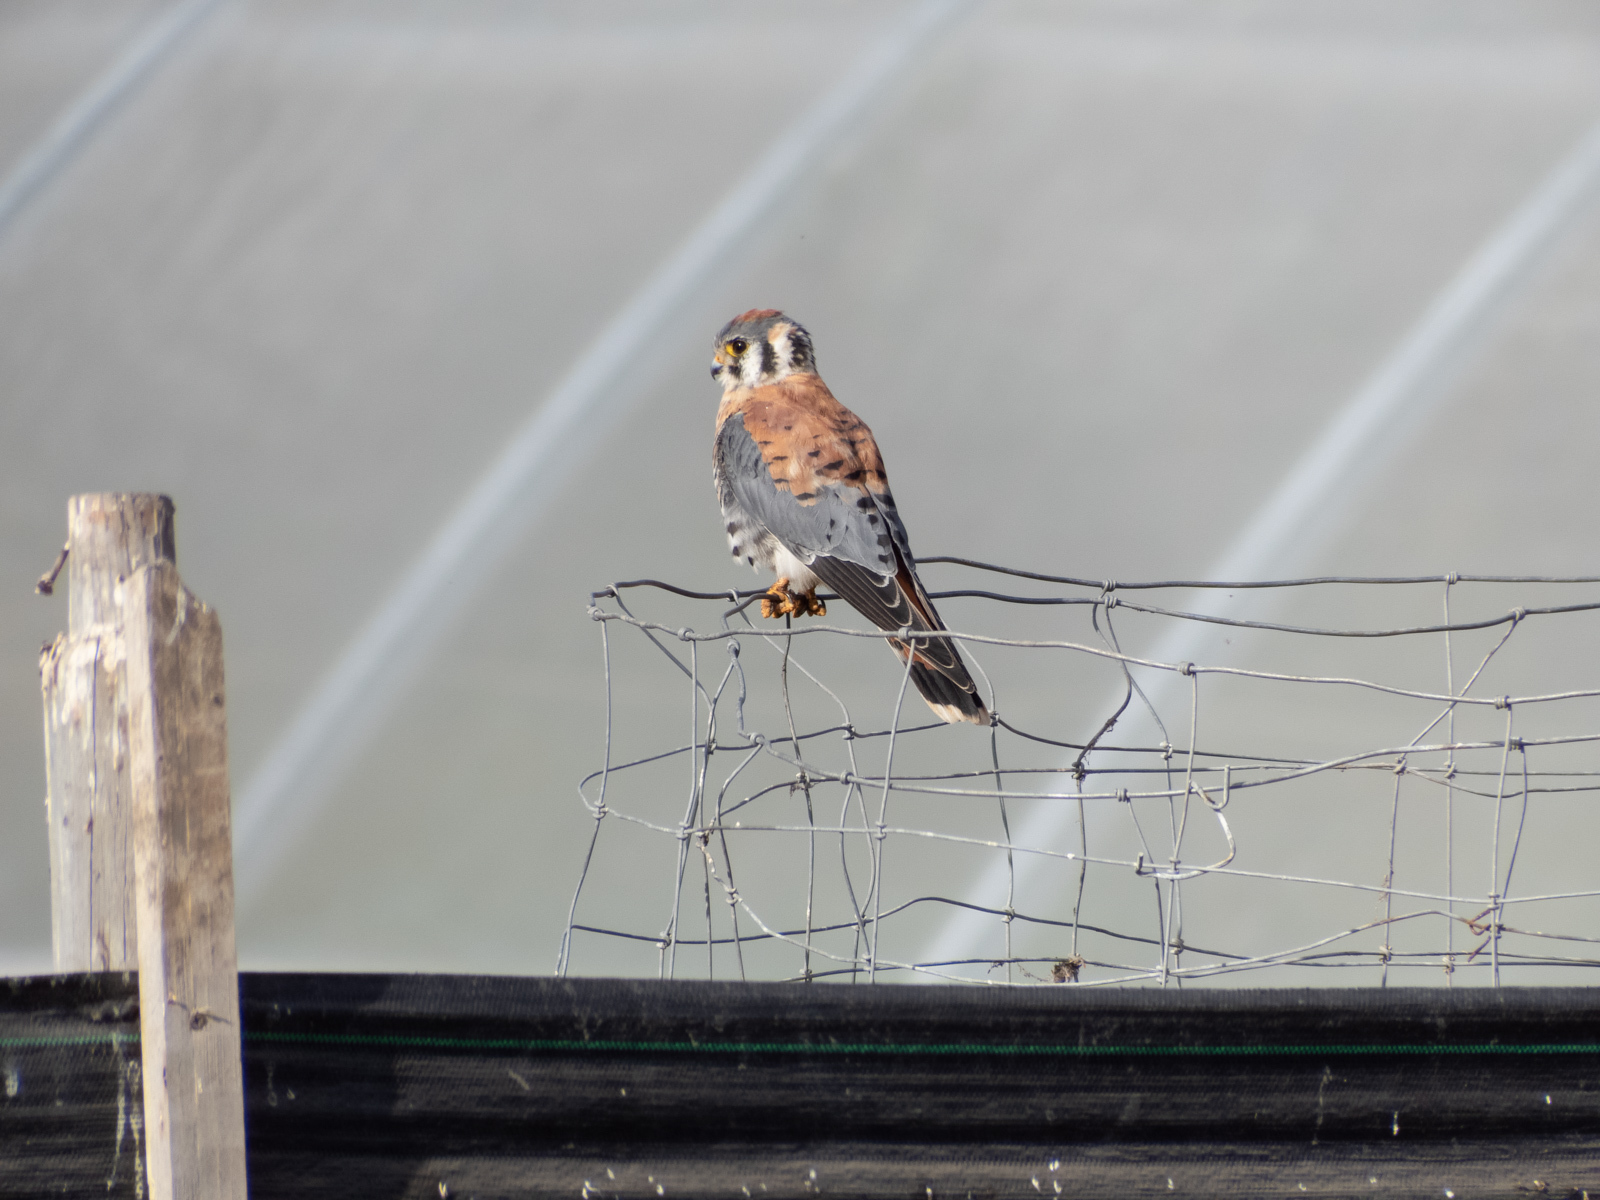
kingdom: Animalia
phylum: Chordata
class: Aves
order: Falconiformes
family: Falconidae
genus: Falco
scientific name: Falco sparverius
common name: American kestrel
